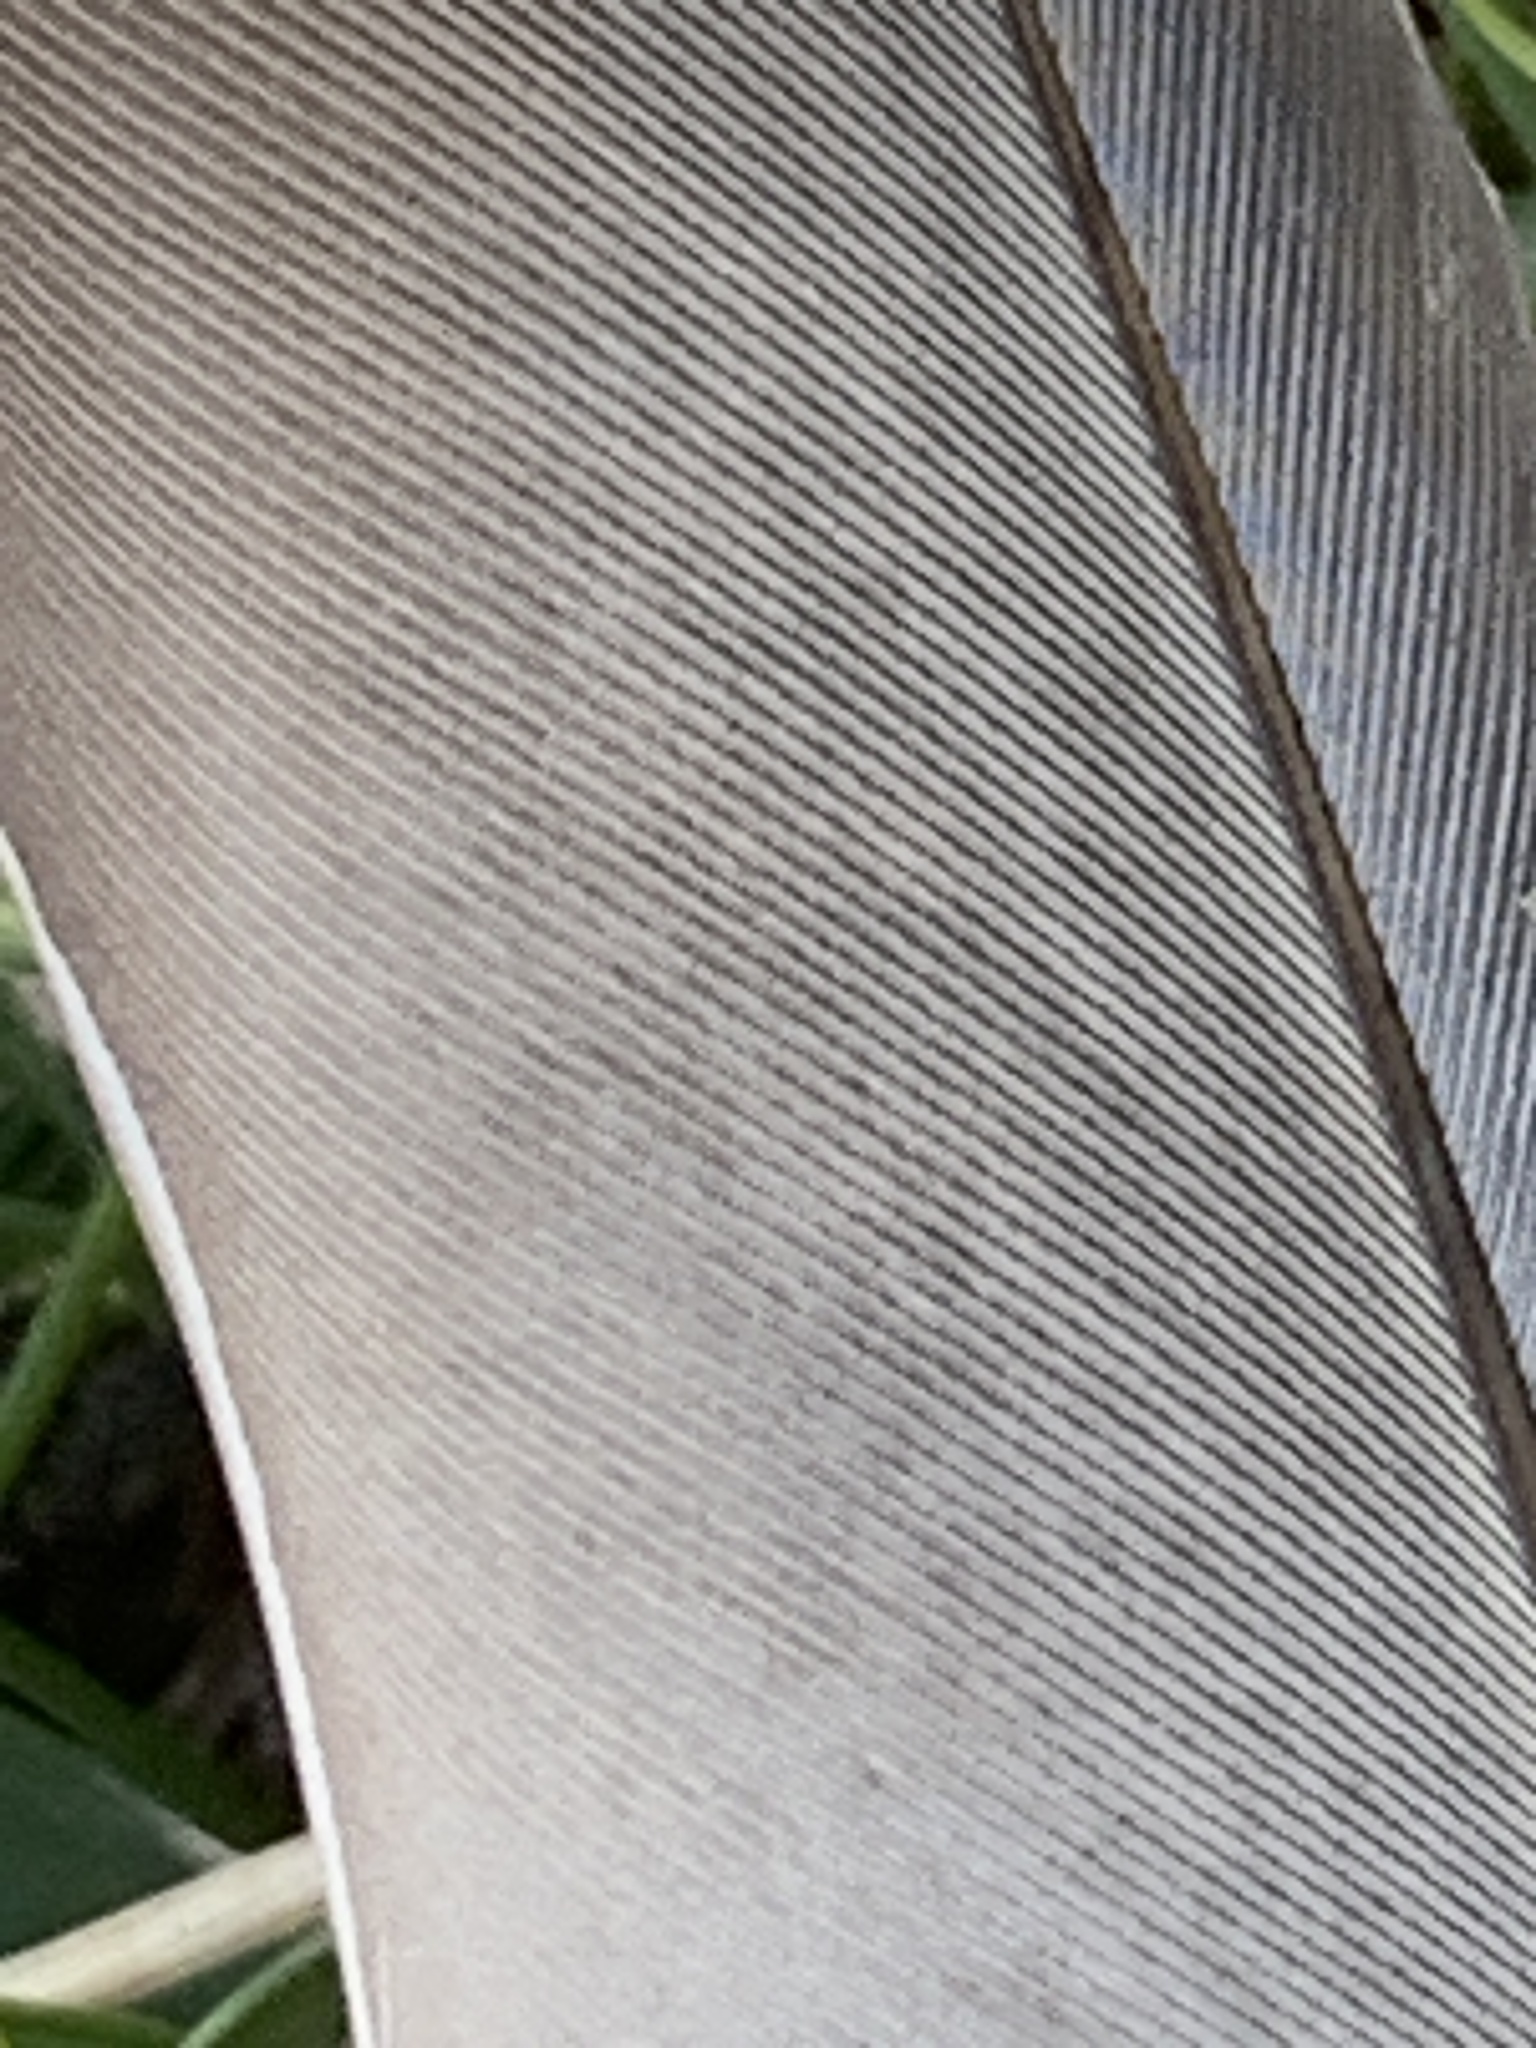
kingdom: Animalia
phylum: Chordata
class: Aves
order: Columbiformes
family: Columbidae
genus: Columba
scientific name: Columba livia
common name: Rock pigeon
